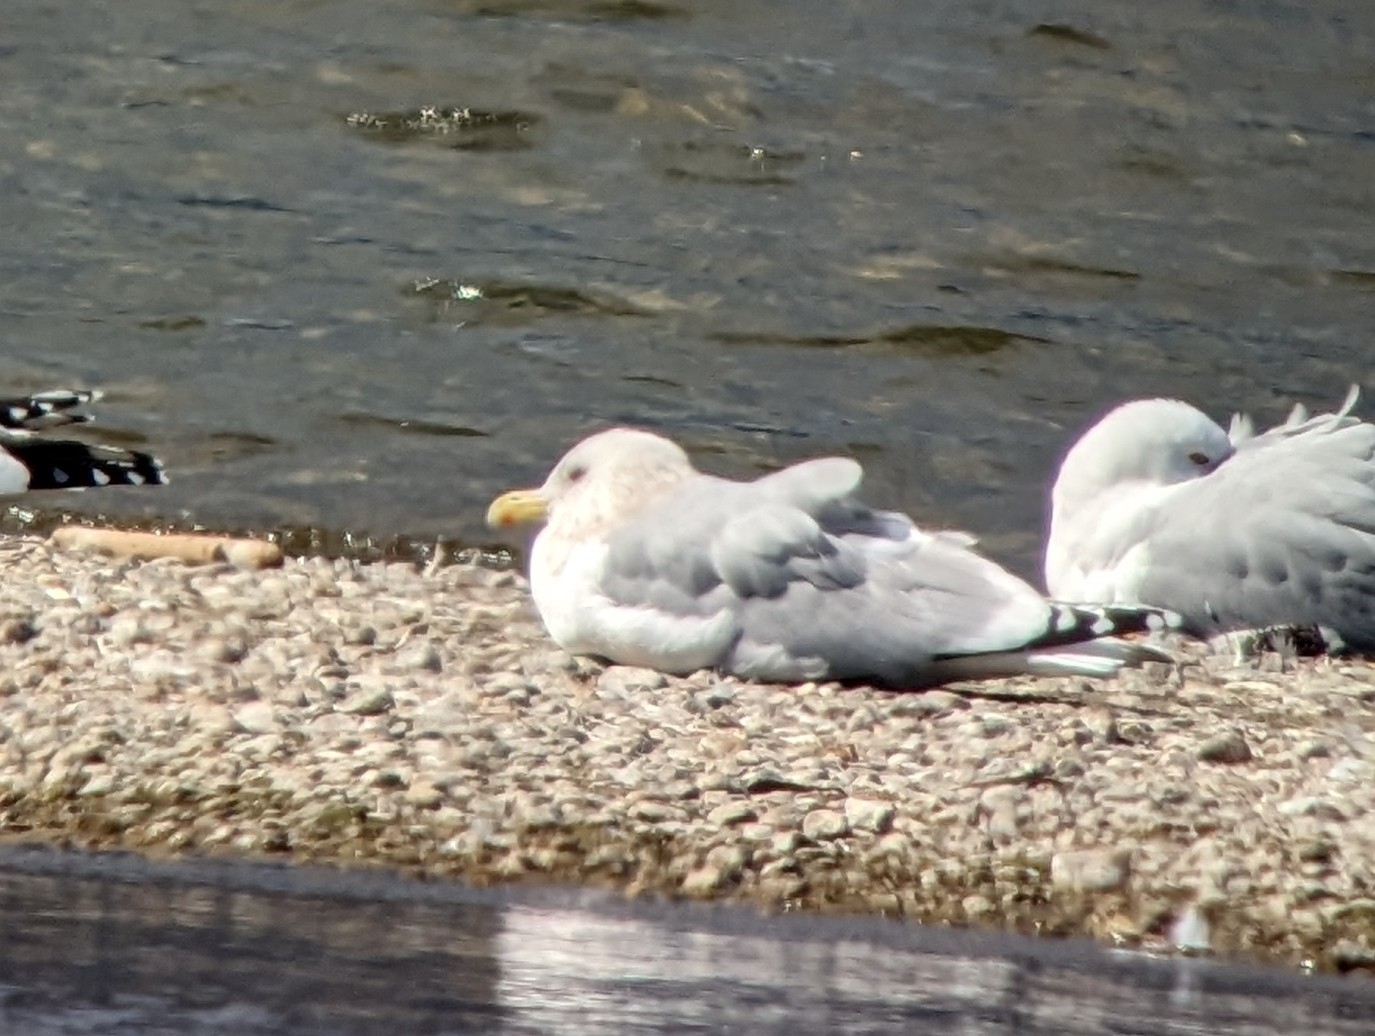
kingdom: Animalia
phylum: Chordata
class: Aves
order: Charadriiformes
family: Laridae
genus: Larus
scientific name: Larus glaucoides
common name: Iceland gull
